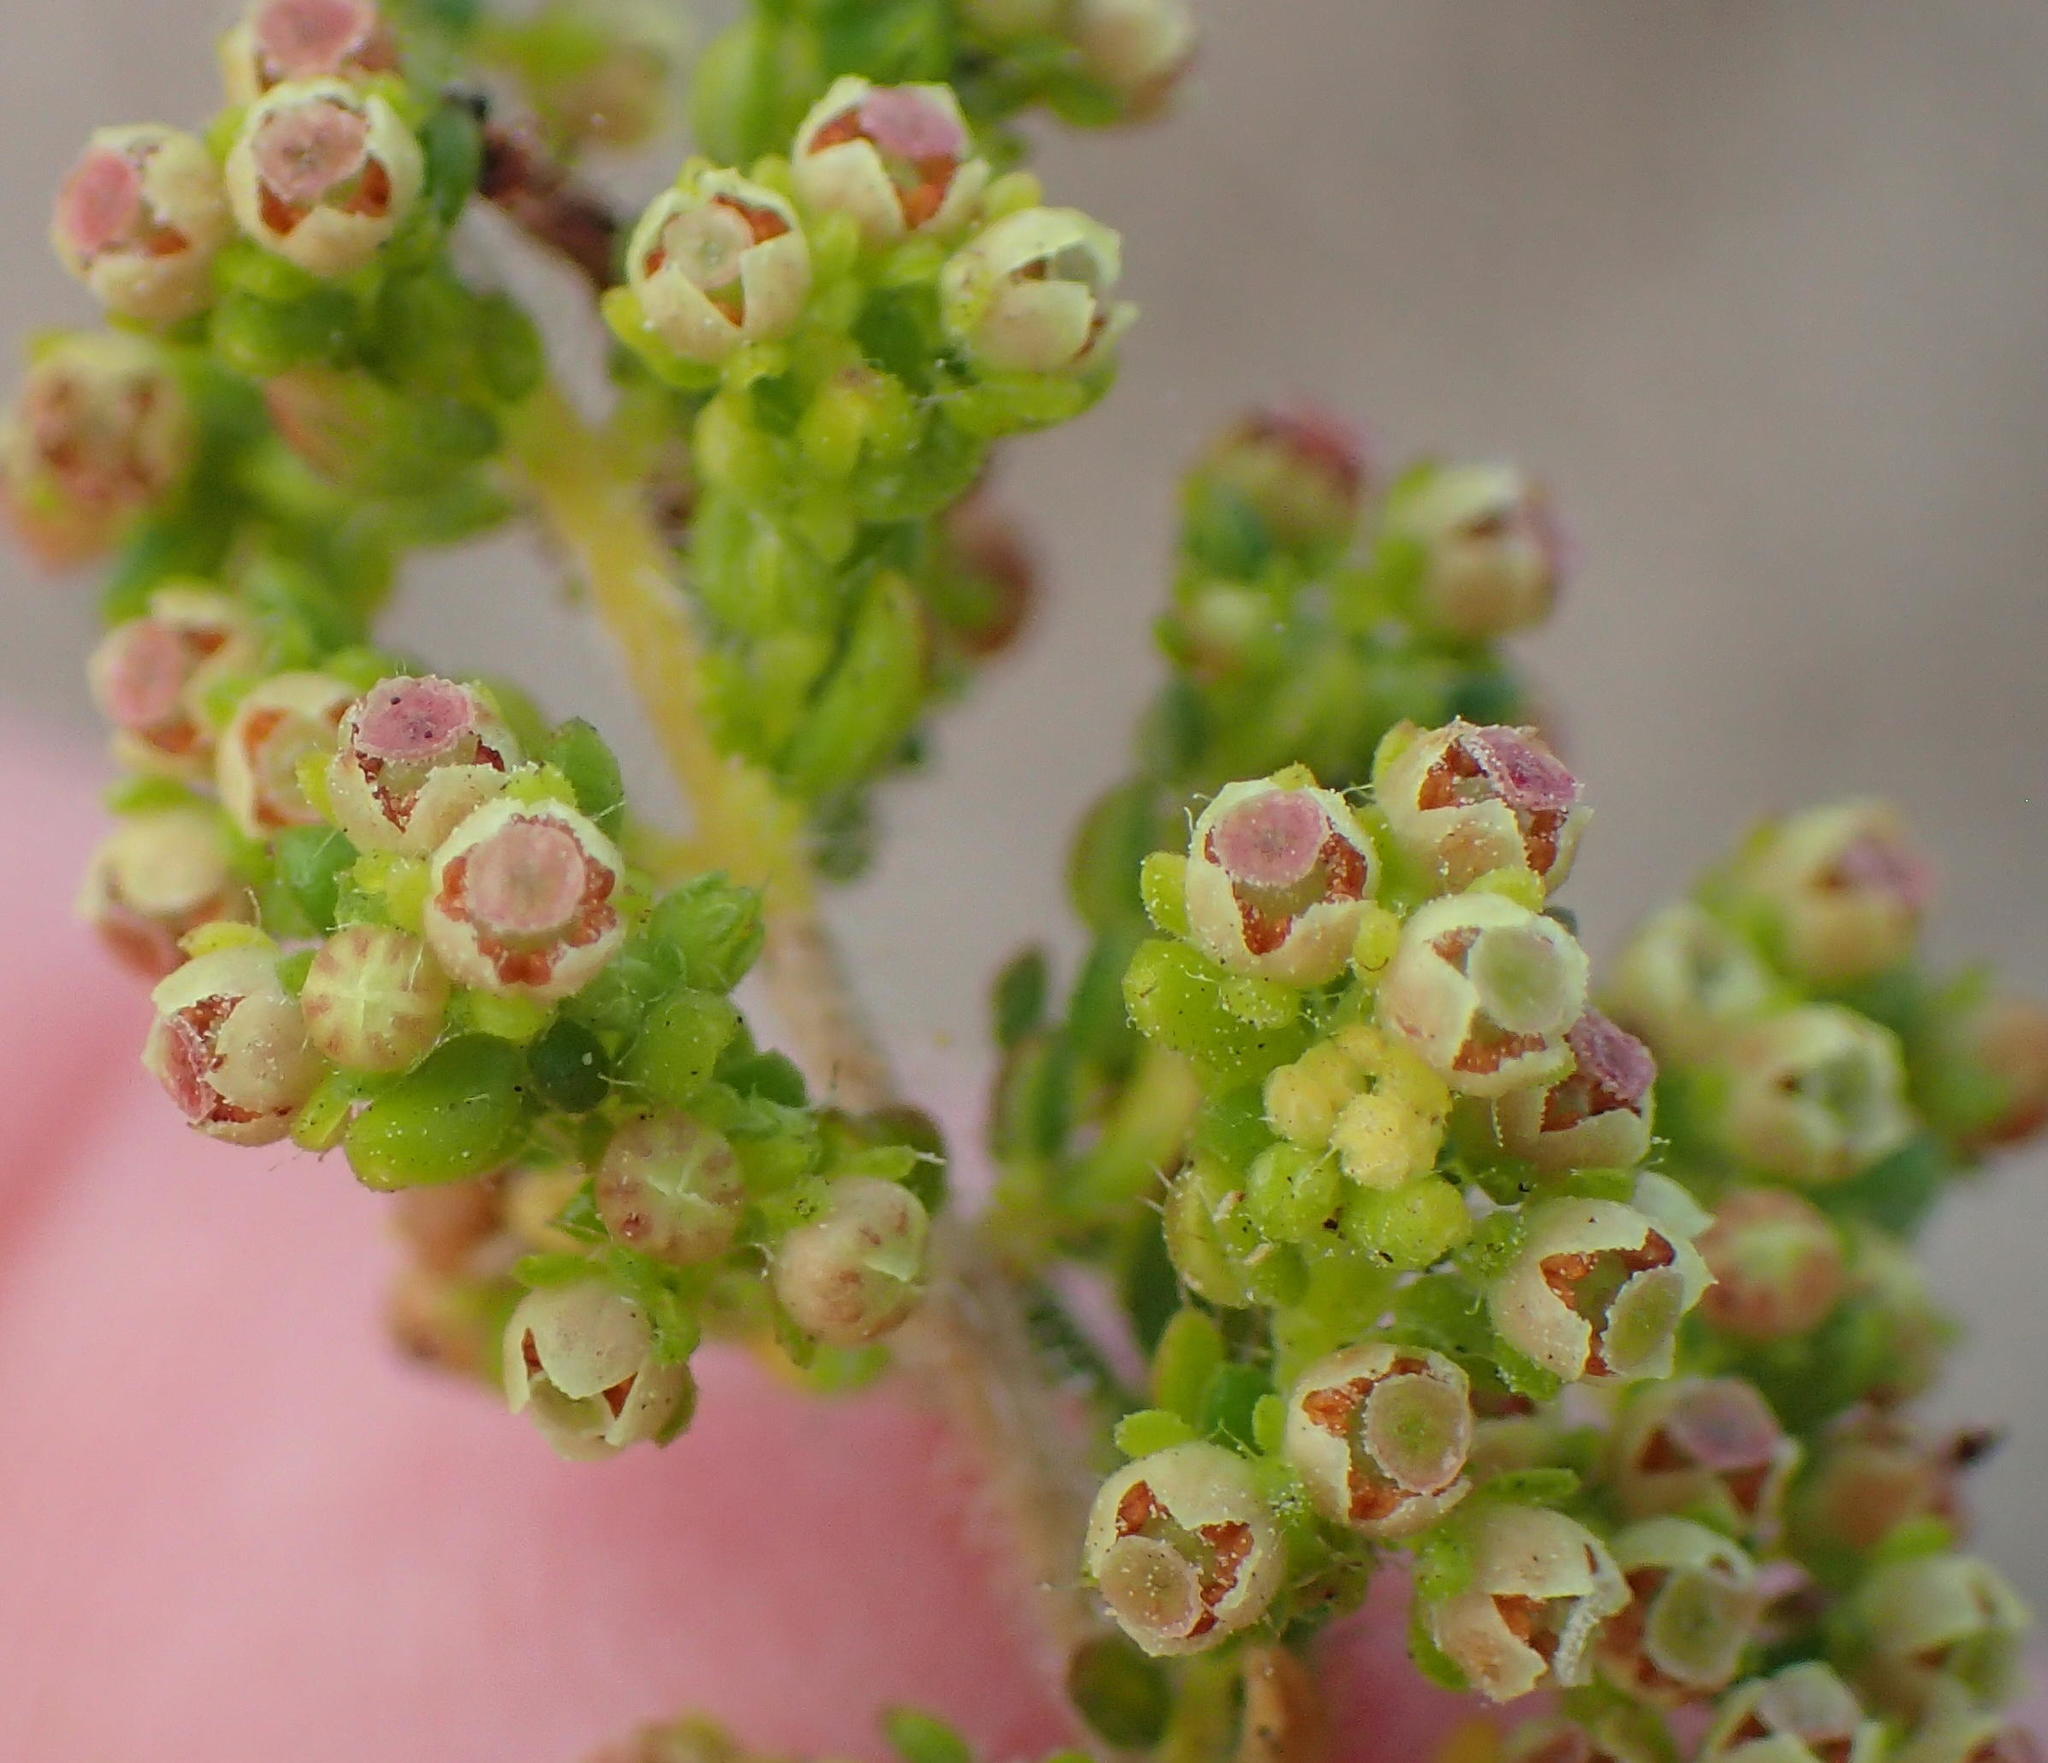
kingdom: Plantae
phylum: Tracheophyta
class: Magnoliopsida
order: Ericales
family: Ericaceae
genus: Erica
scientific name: Erica leucopelta
